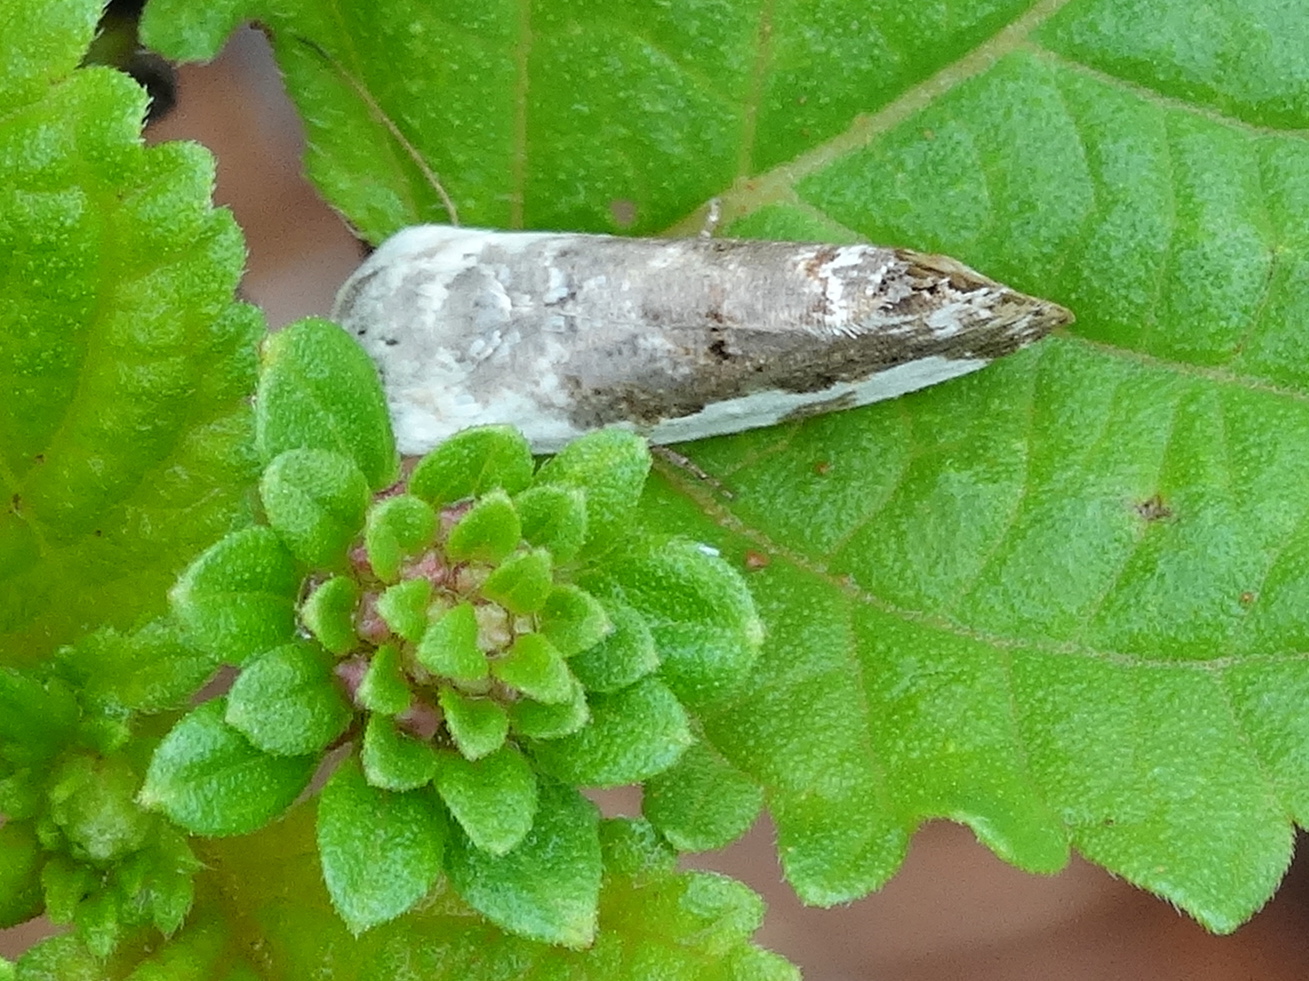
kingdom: Animalia
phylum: Arthropoda
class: Insecta
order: Lepidoptera
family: Noctuidae
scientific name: Noctuidae
